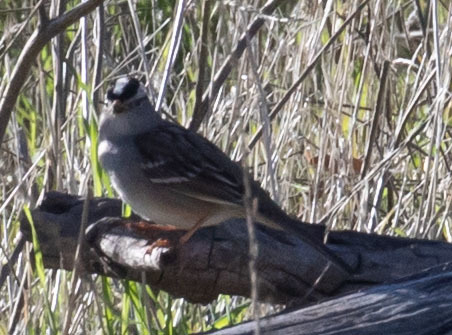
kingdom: Animalia
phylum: Chordata
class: Aves
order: Passeriformes
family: Passerellidae
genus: Zonotrichia
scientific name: Zonotrichia leucophrys
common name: White-crowned sparrow
